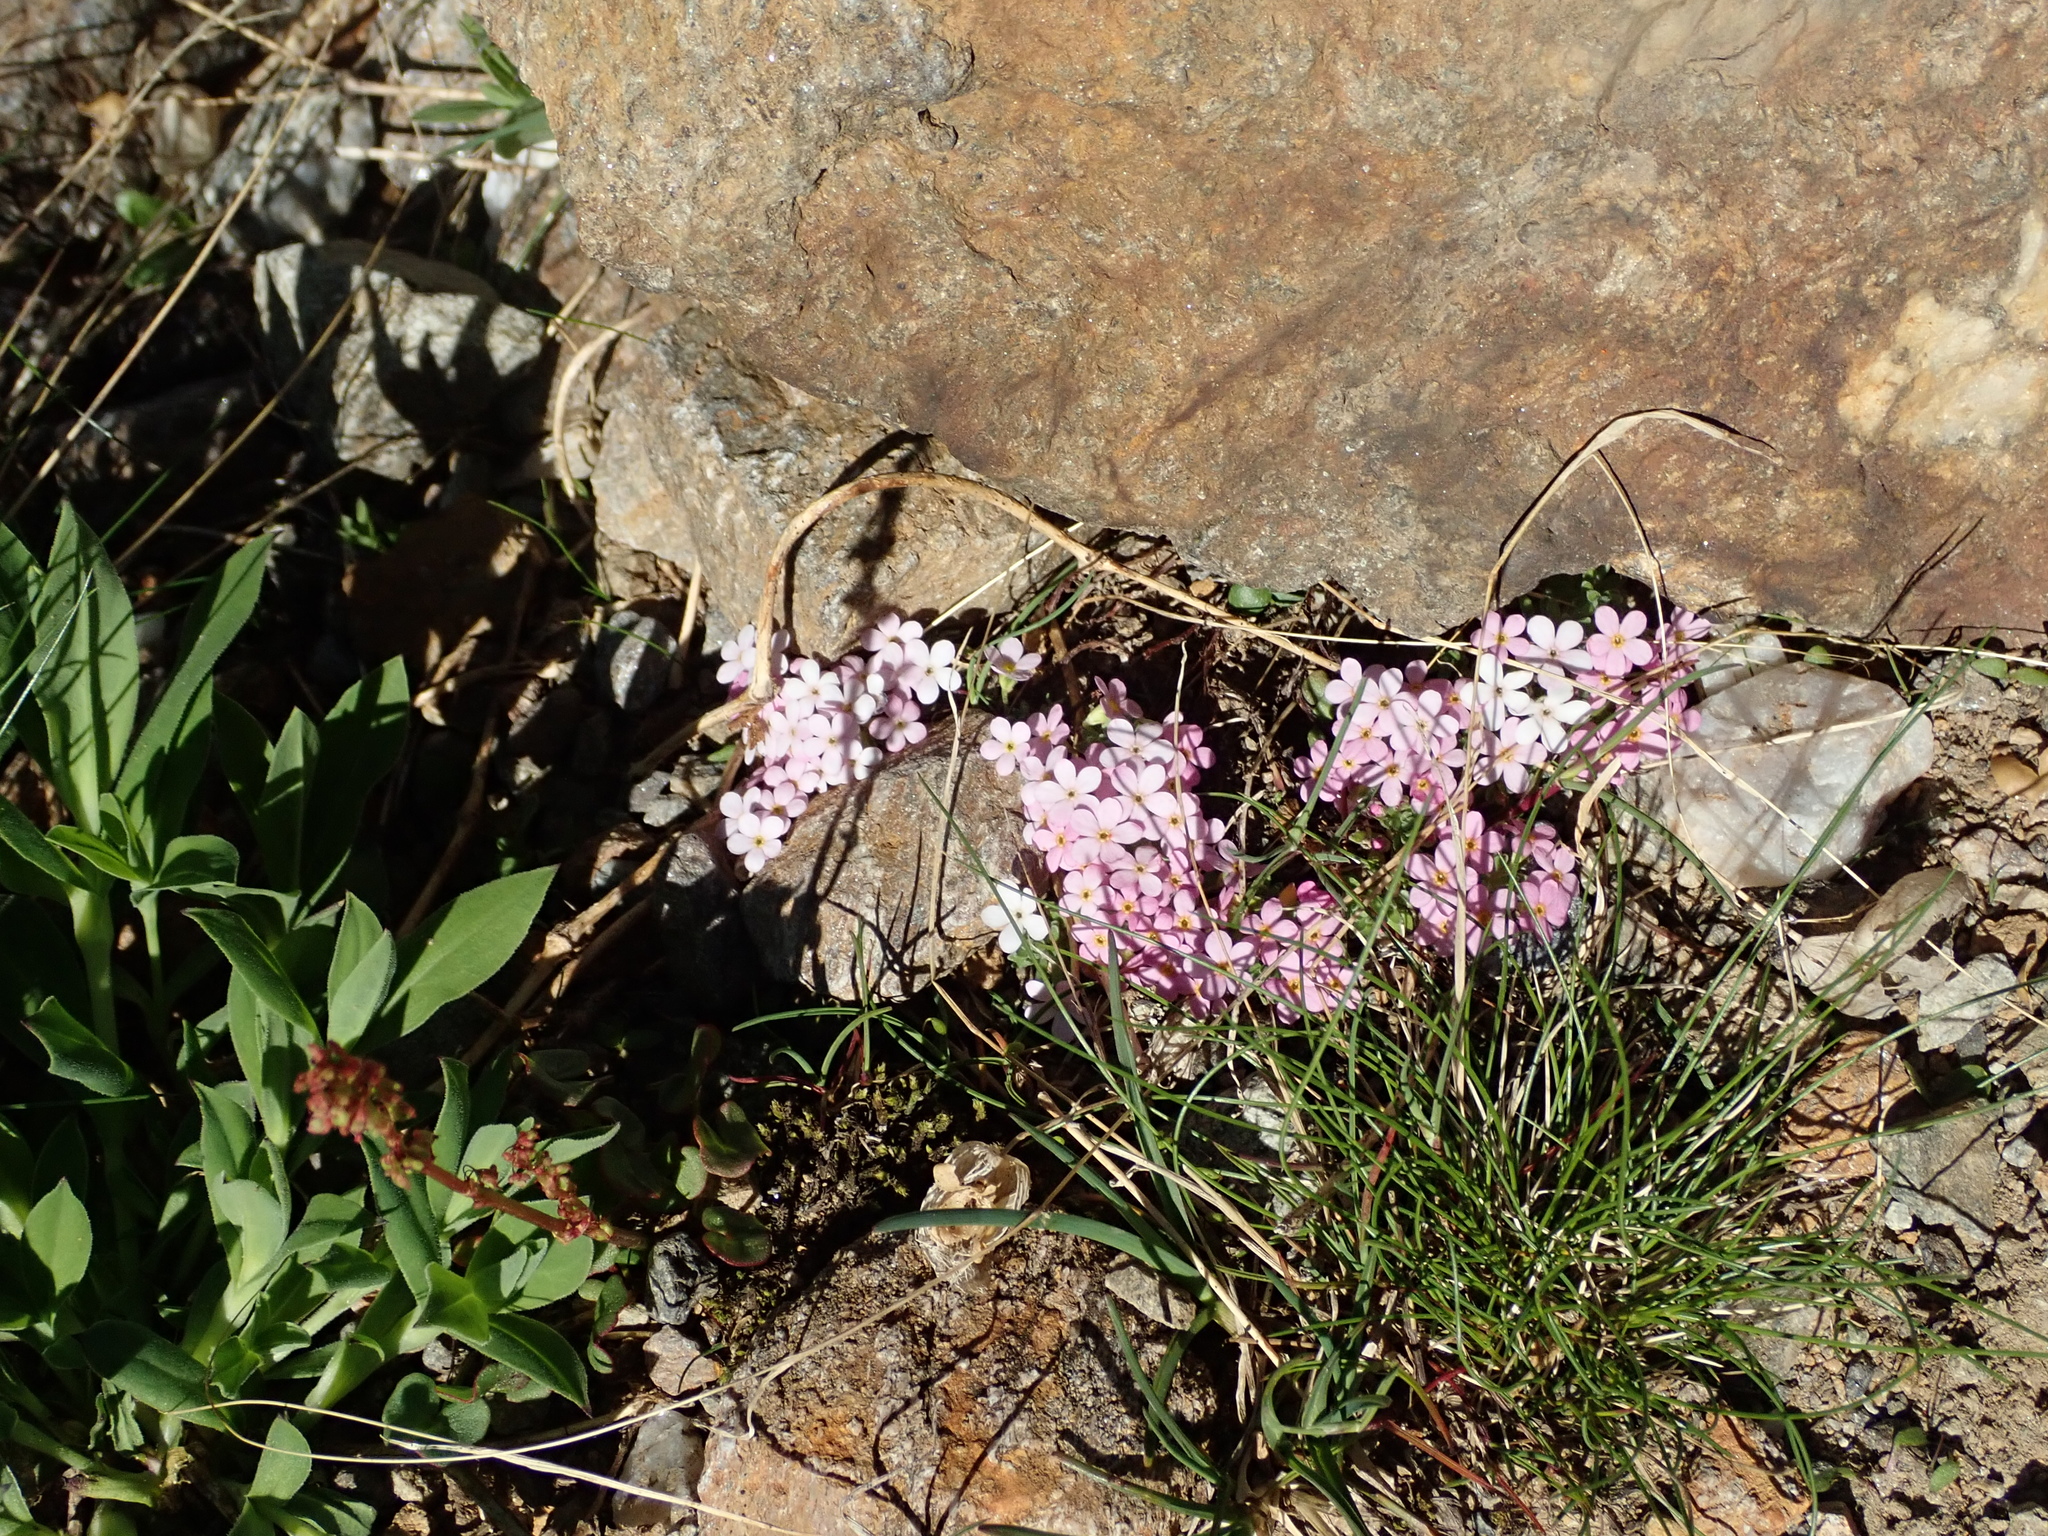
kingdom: Plantae
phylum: Tracheophyta
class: Magnoliopsida
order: Ericales
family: Primulaceae
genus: Androsace
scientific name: Androsace alpina
